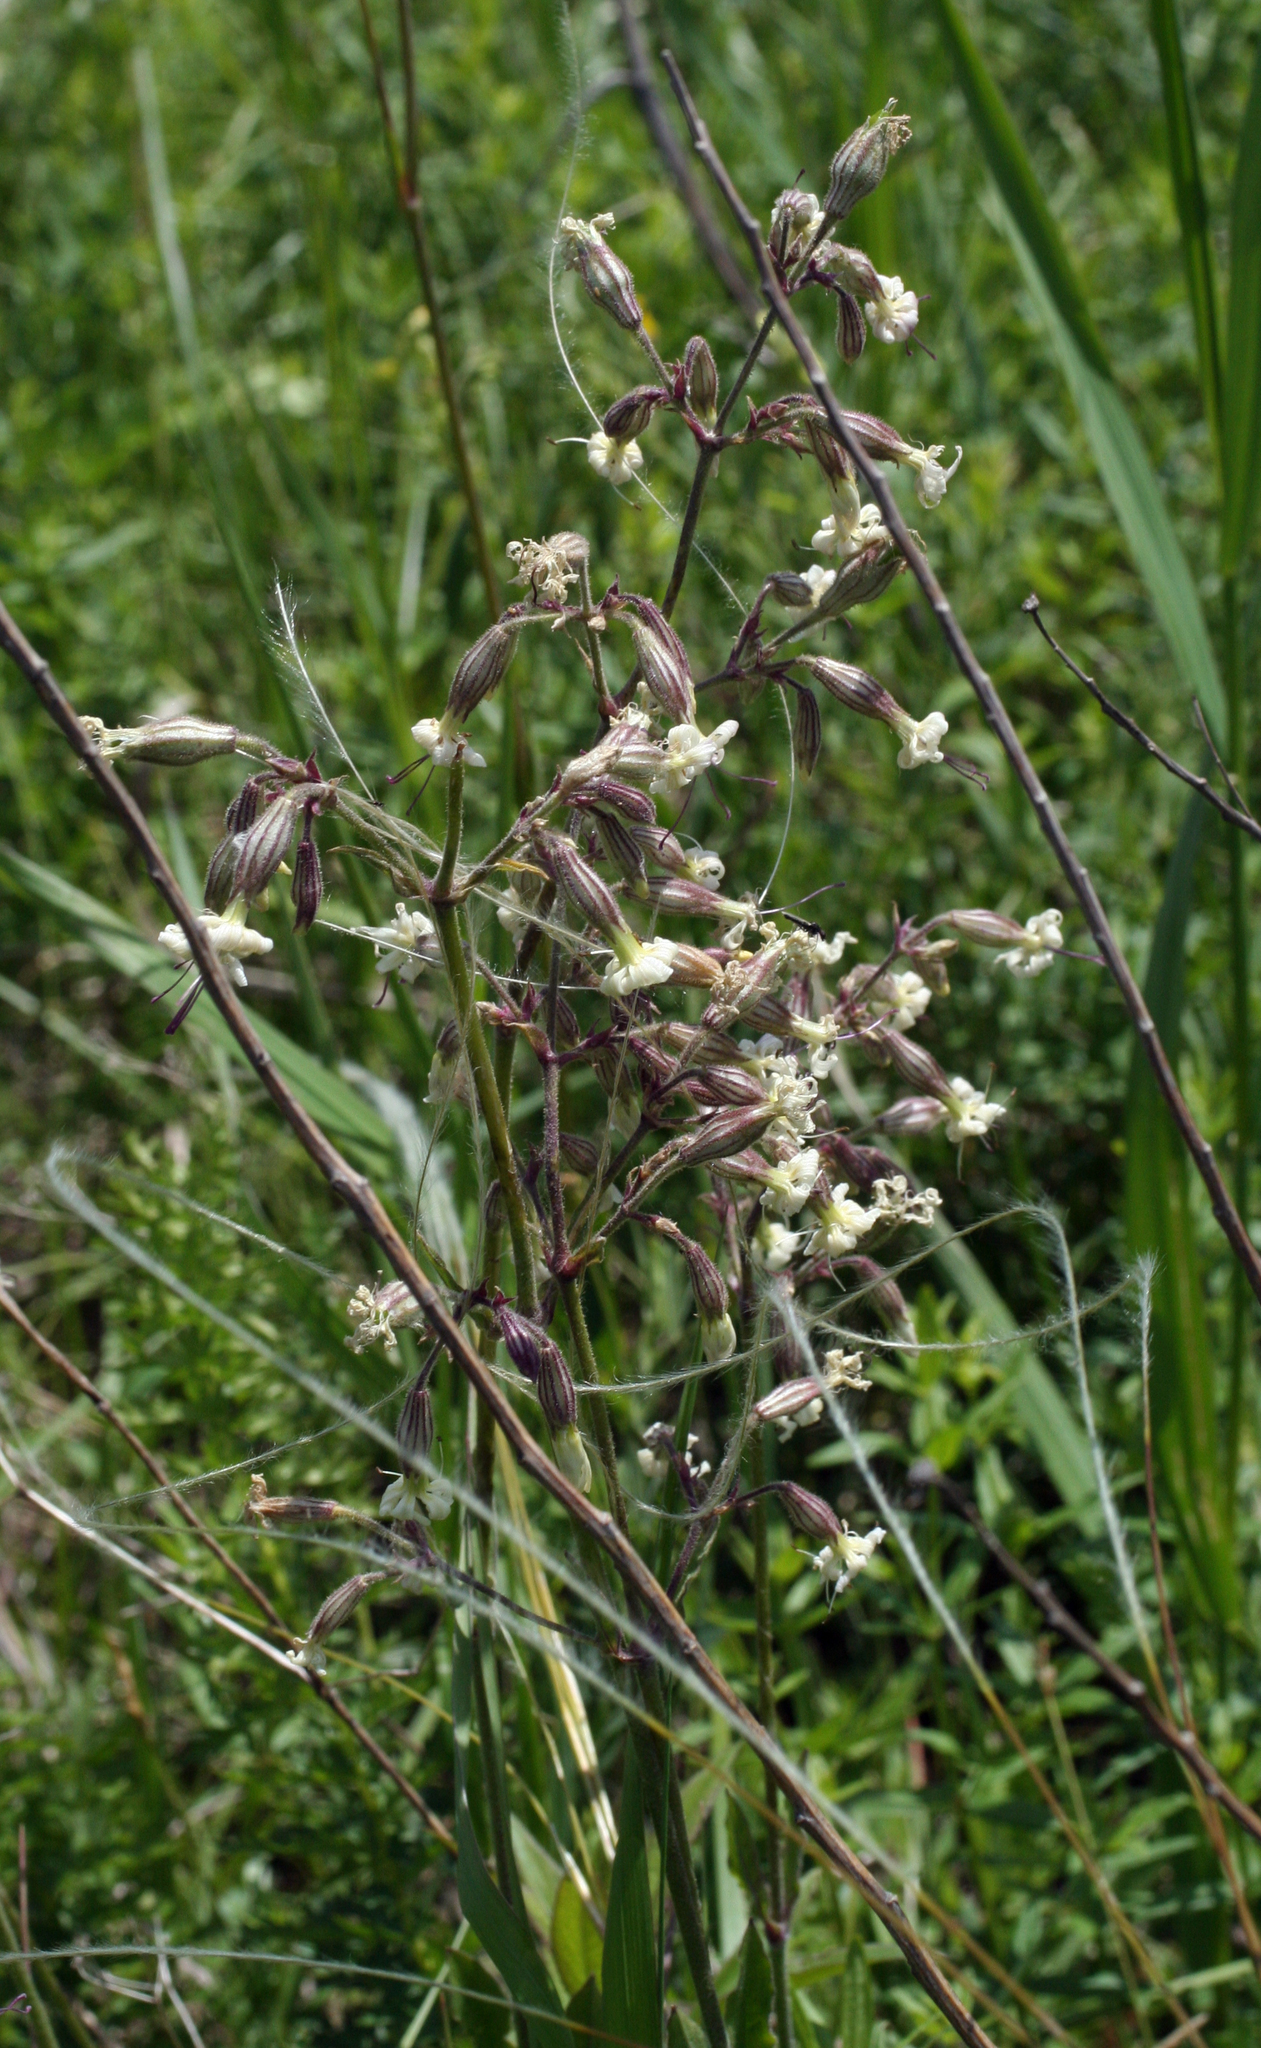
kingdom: Plantae
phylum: Tracheophyta
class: Magnoliopsida
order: Caryophyllales
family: Caryophyllaceae
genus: Silene
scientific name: Silene nutans
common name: Nottingham catchfly
